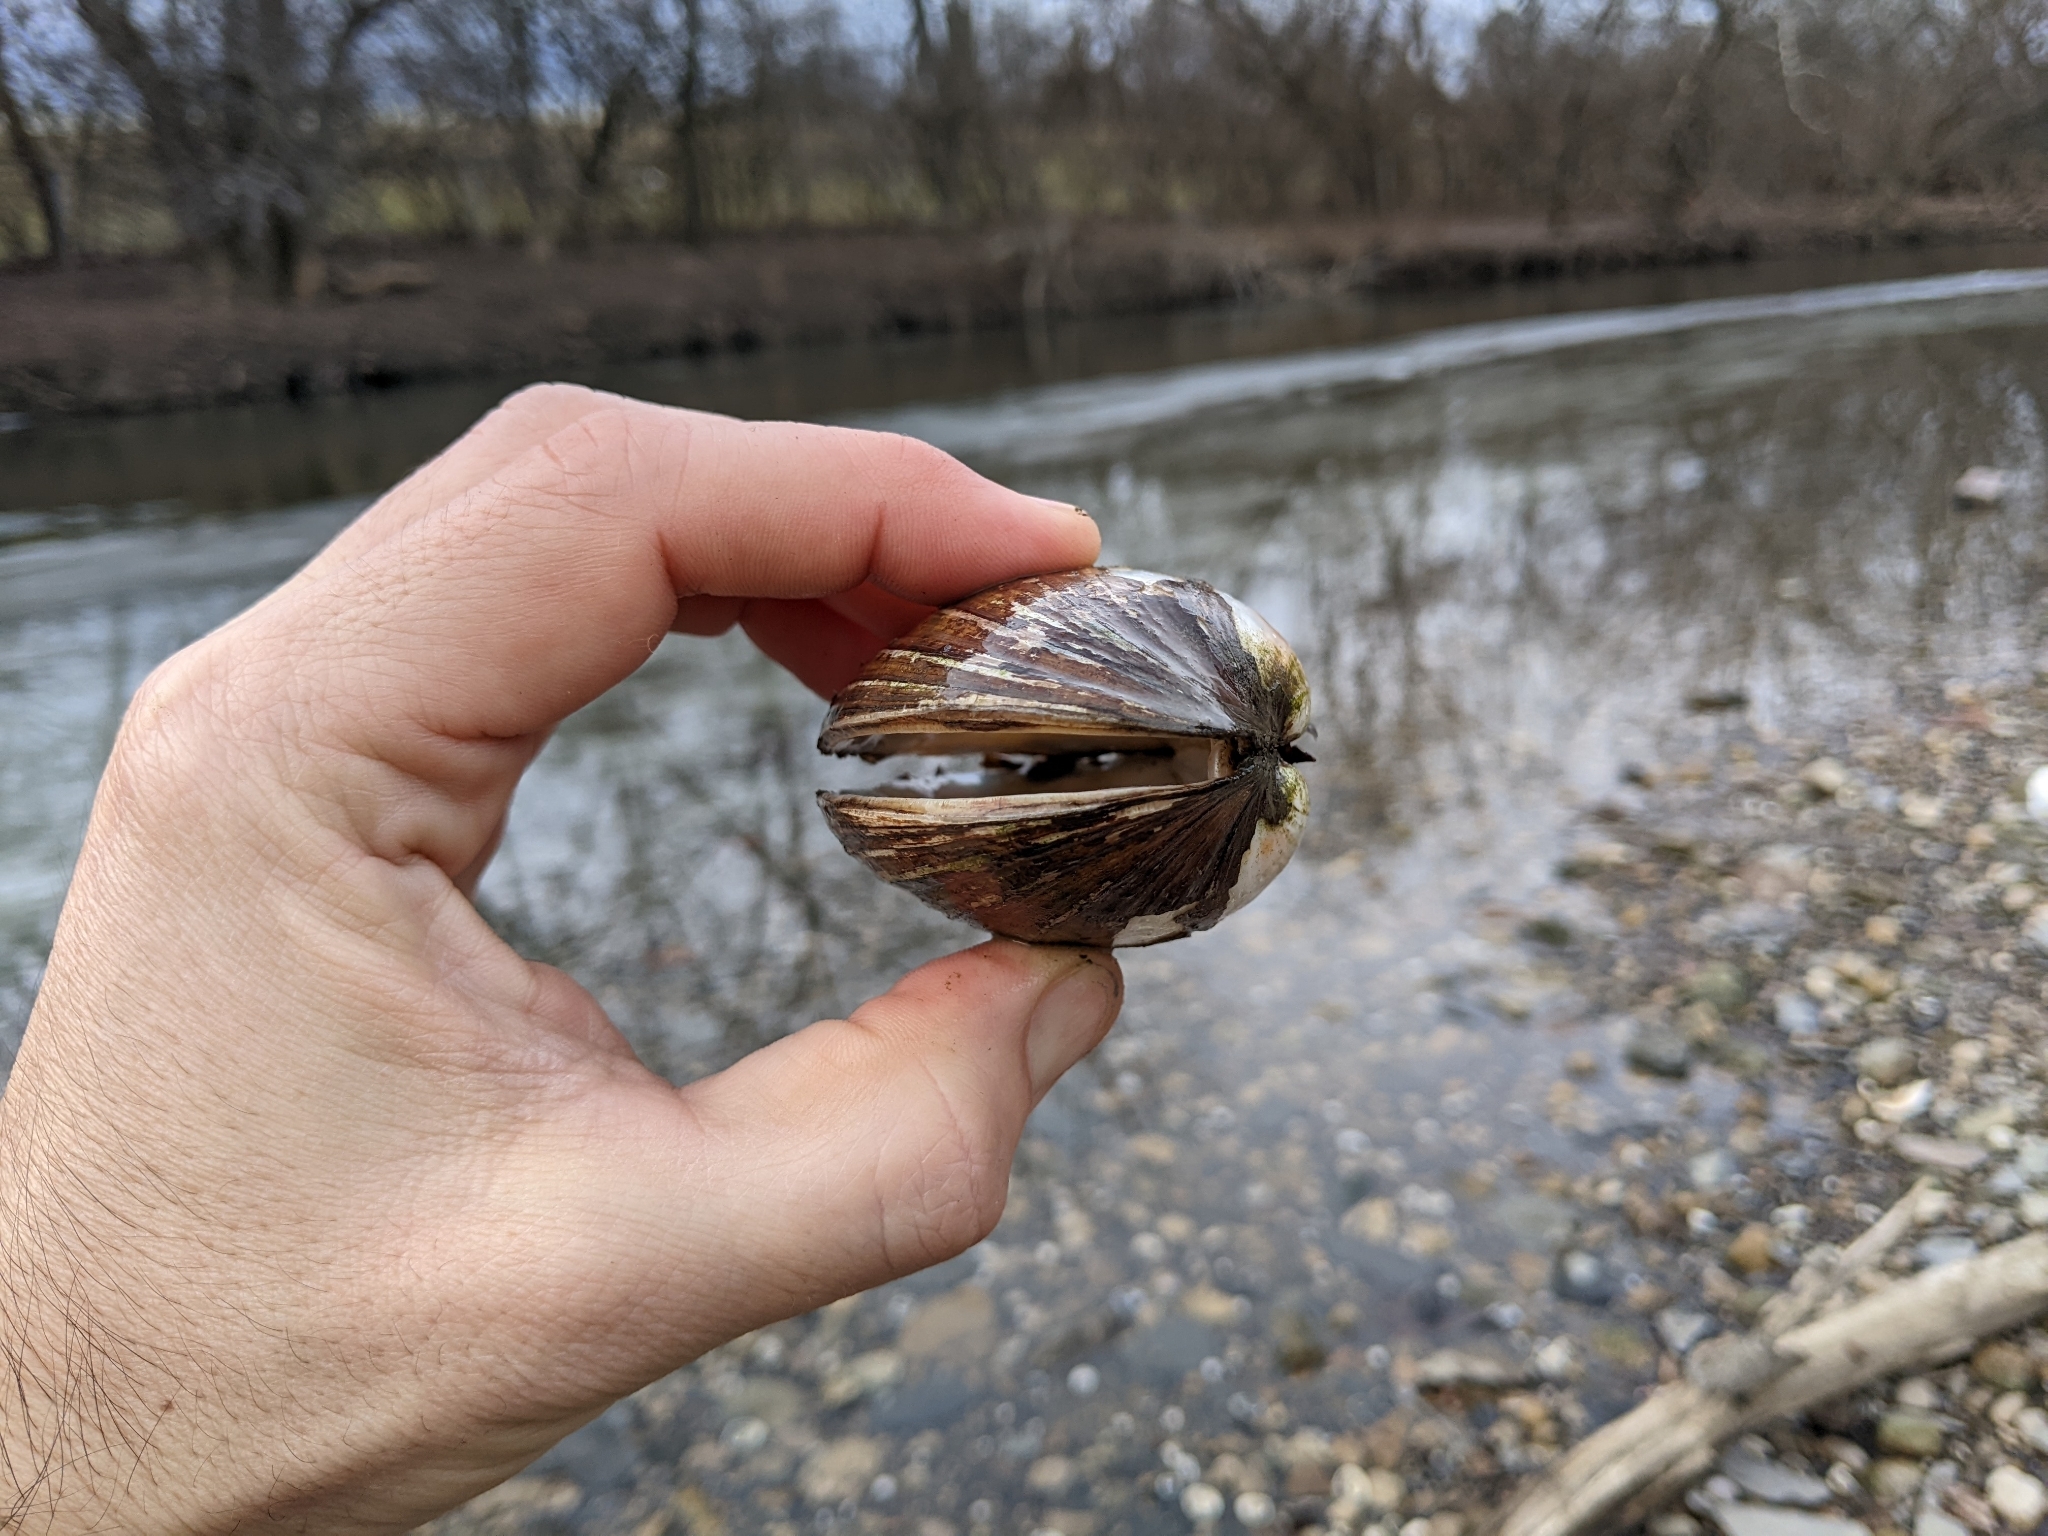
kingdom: Animalia
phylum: Mollusca
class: Bivalvia
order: Unionida
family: Unionidae
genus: Lampsilis
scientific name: Lampsilis siliquoidea
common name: Fatmucket
